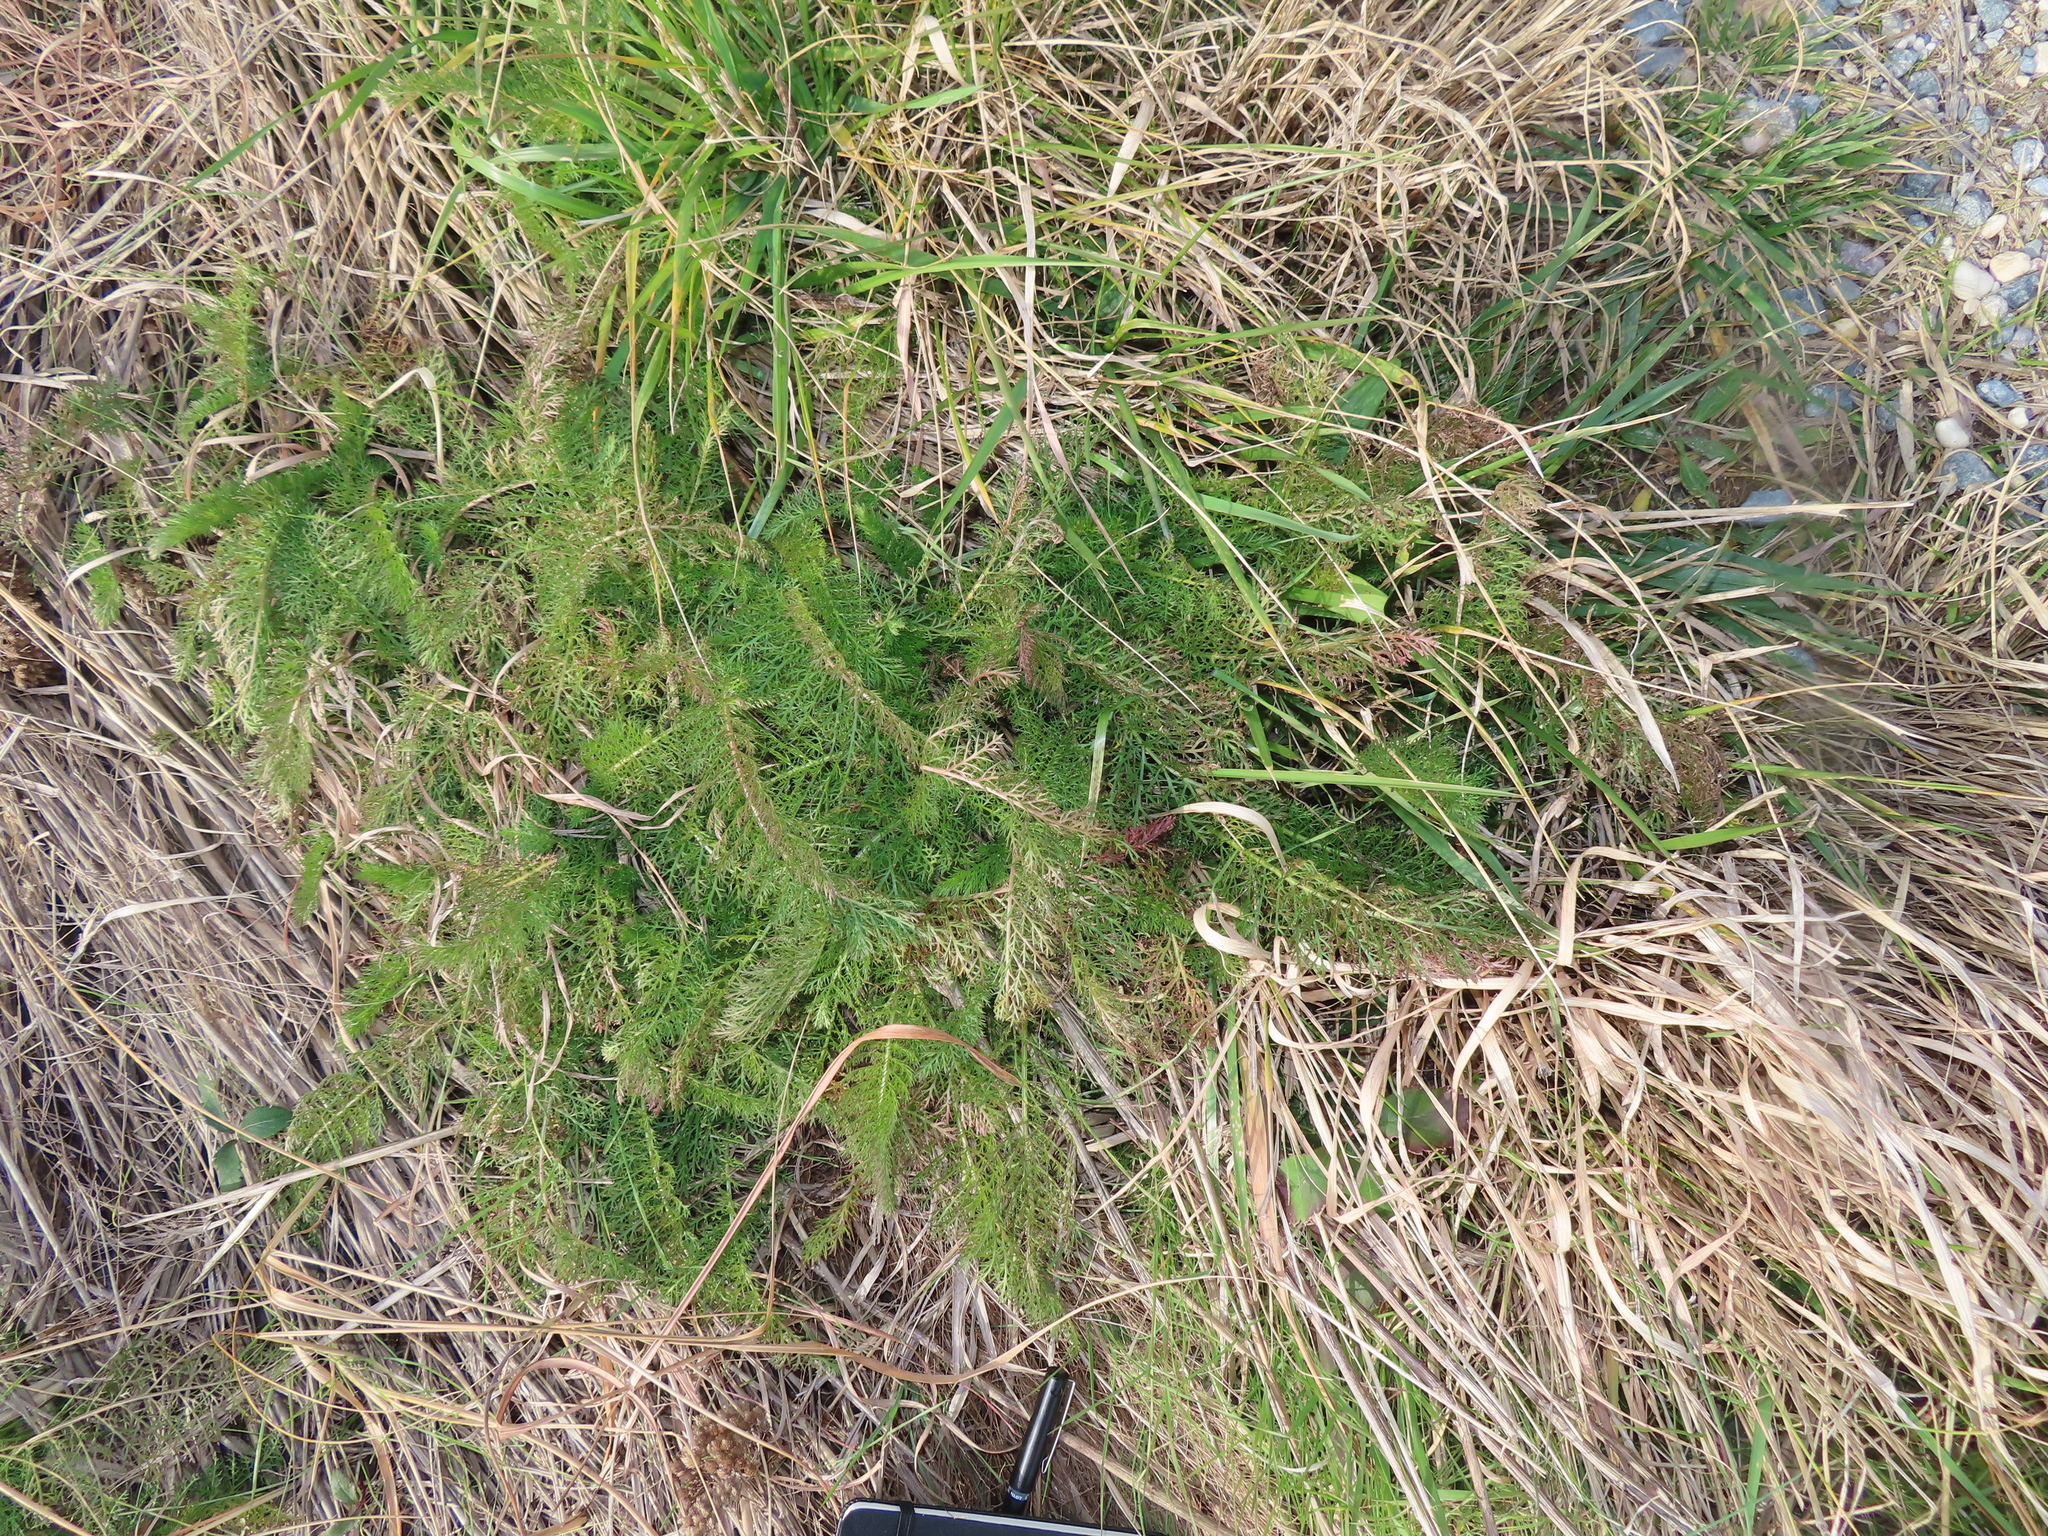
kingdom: Plantae
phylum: Tracheophyta
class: Magnoliopsida
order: Asterales
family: Asteraceae
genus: Achillea
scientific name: Achillea millefolium
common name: Yarrow
